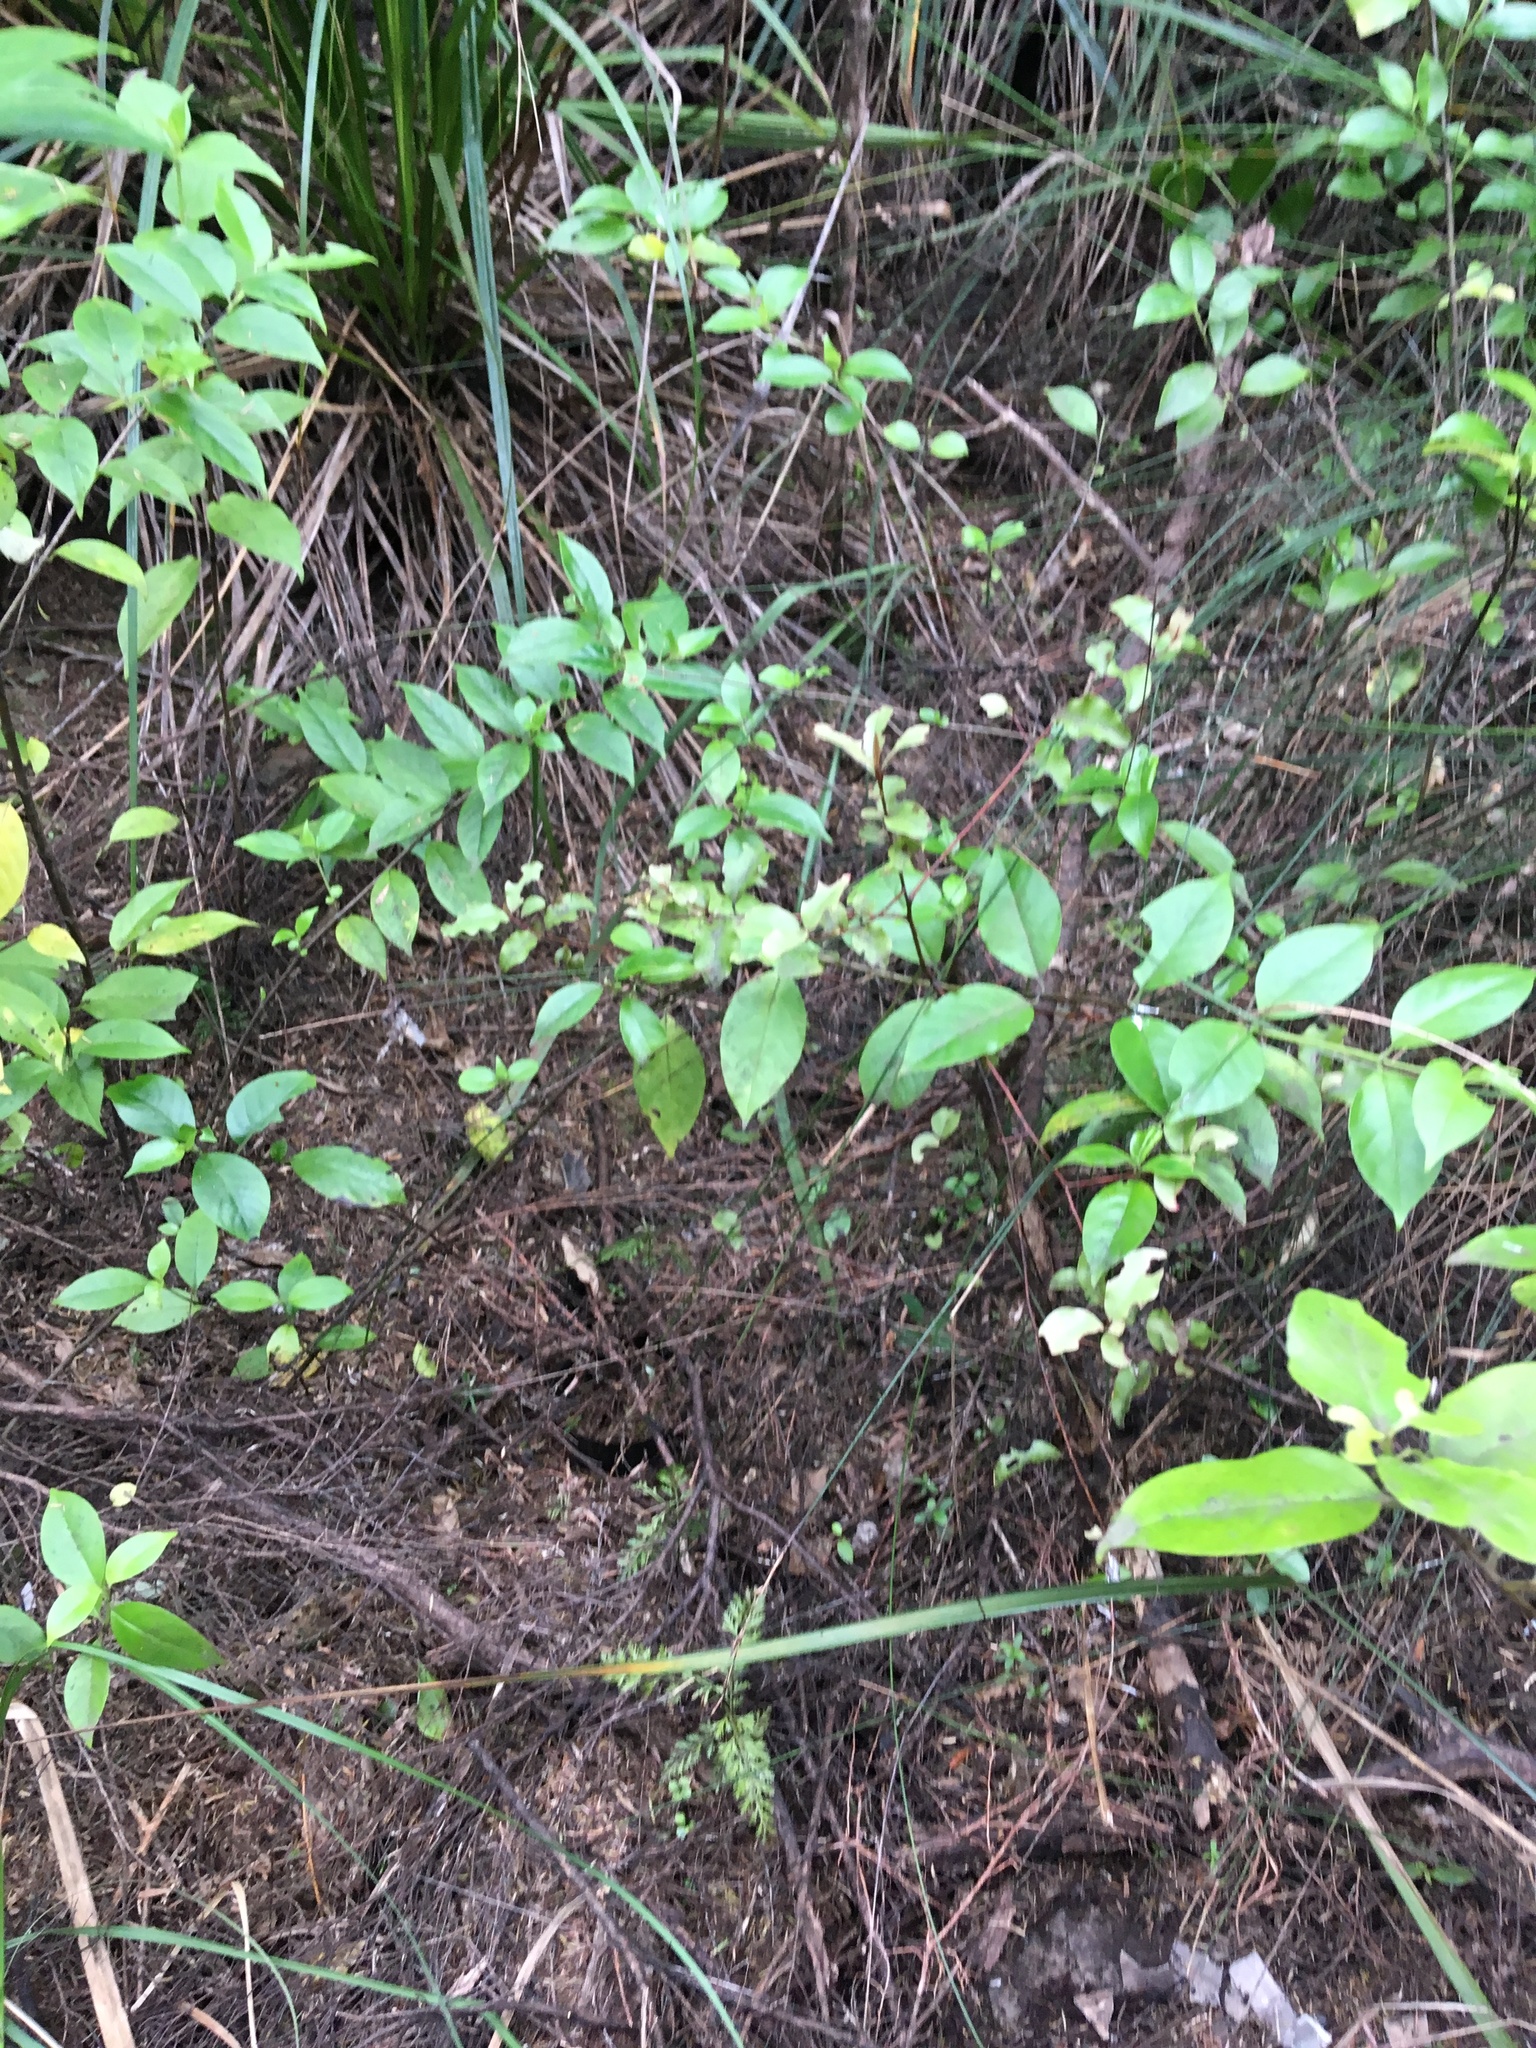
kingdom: Plantae
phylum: Tracheophyta
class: Magnoliopsida
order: Gentianales
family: Loganiaceae
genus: Geniostoma
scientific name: Geniostoma ligustrifolium
